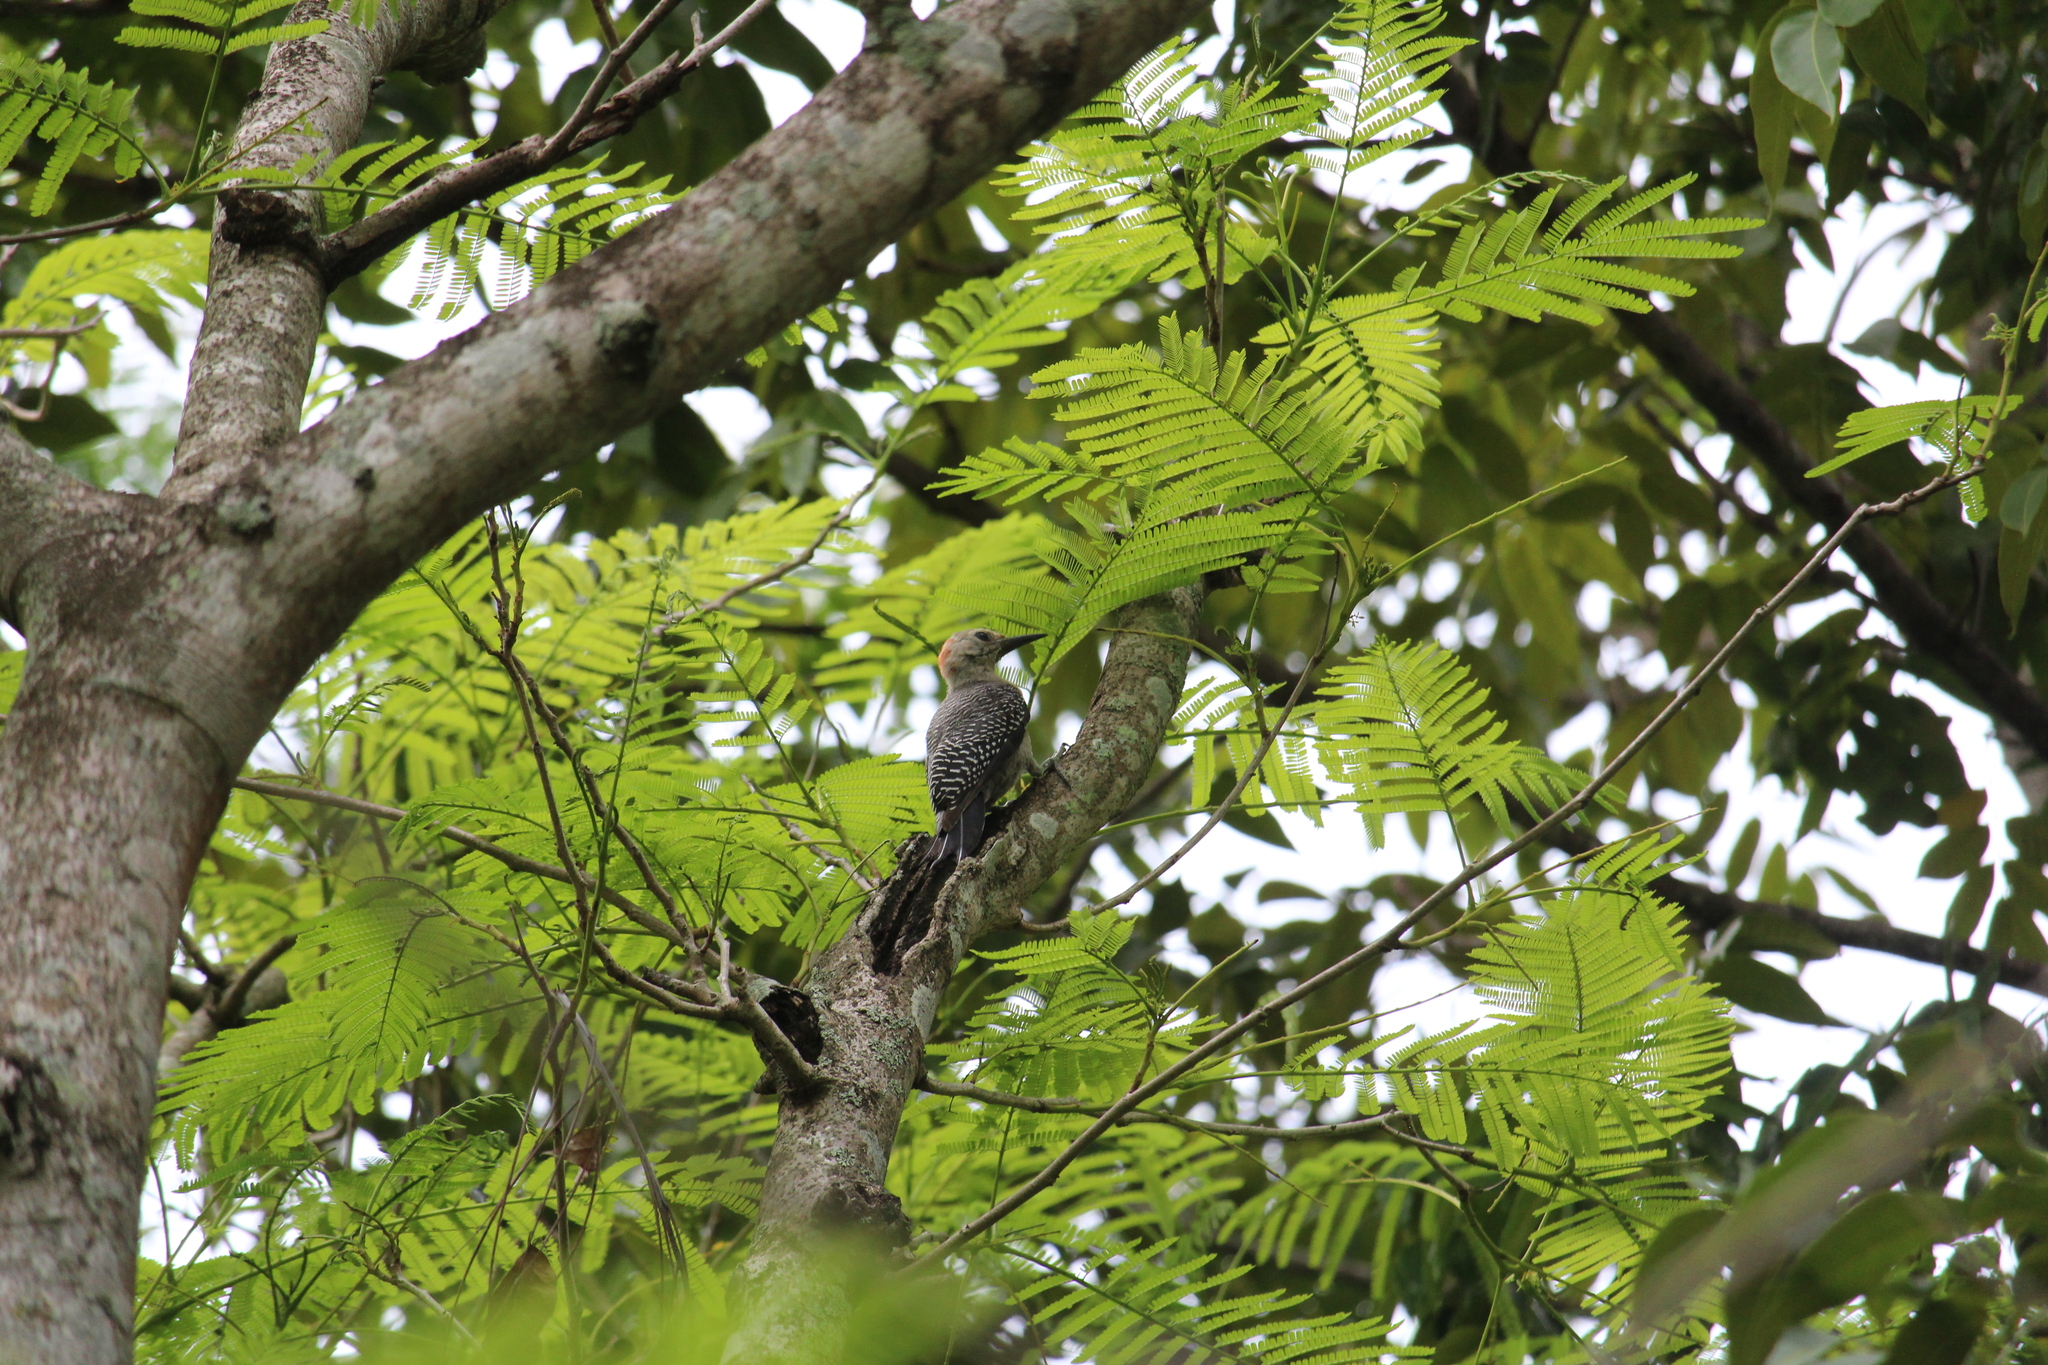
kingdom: Animalia
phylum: Chordata
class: Aves
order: Piciformes
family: Picidae
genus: Melanerpes
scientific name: Melanerpes aurifrons
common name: Golden-fronted woodpecker
